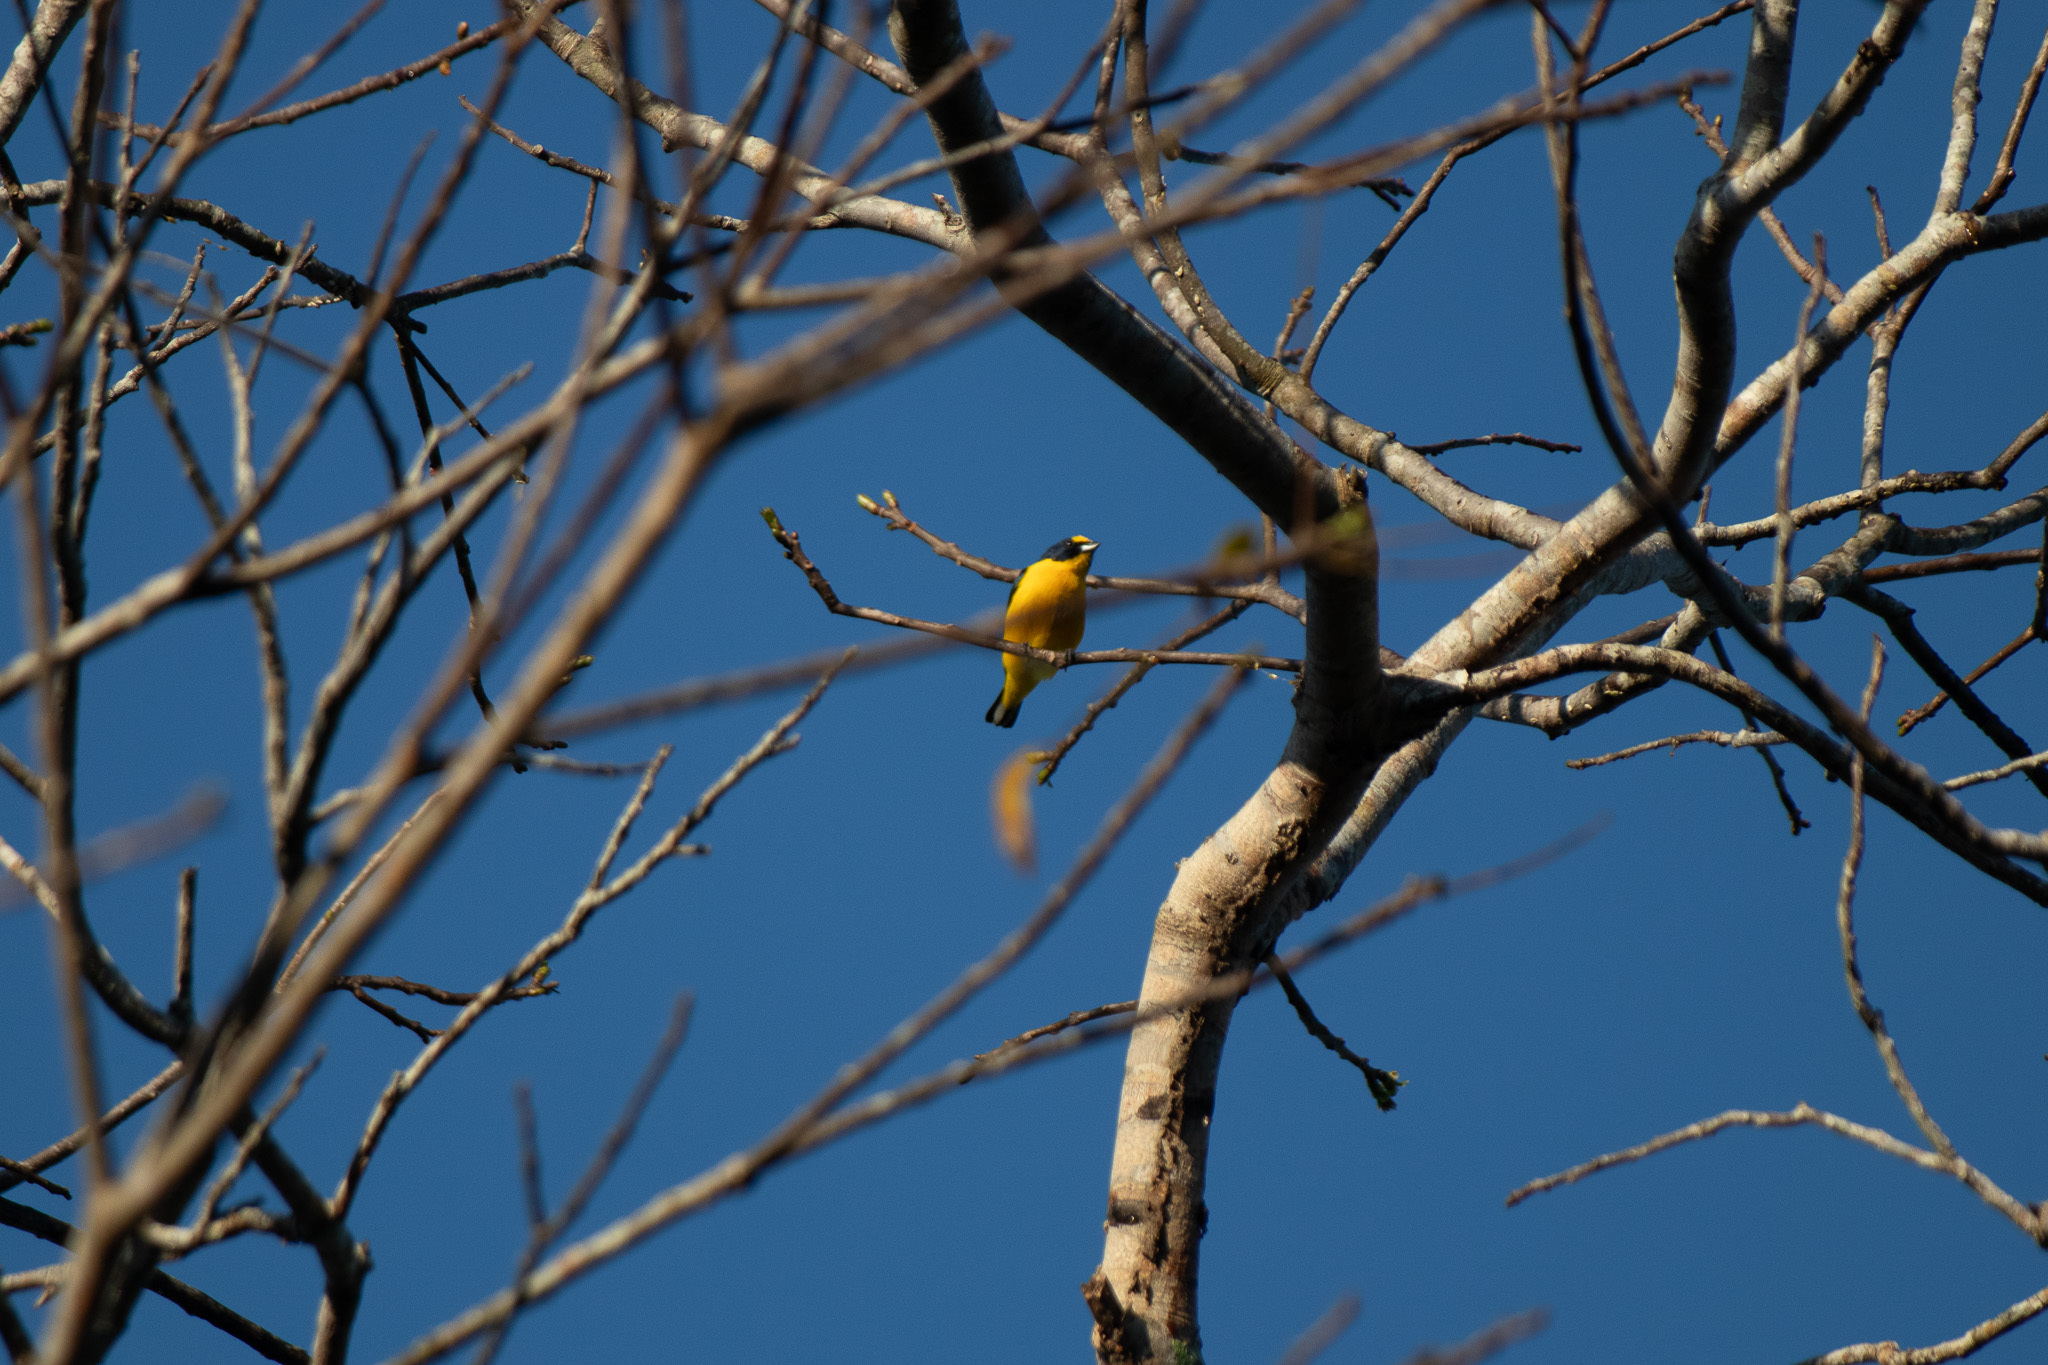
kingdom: Animalia
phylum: Chordata
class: Aves
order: Passeriformes
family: Fringillidae
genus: Euphonia
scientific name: Euphonia hirundinacea
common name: Yellow-throated euphonia
